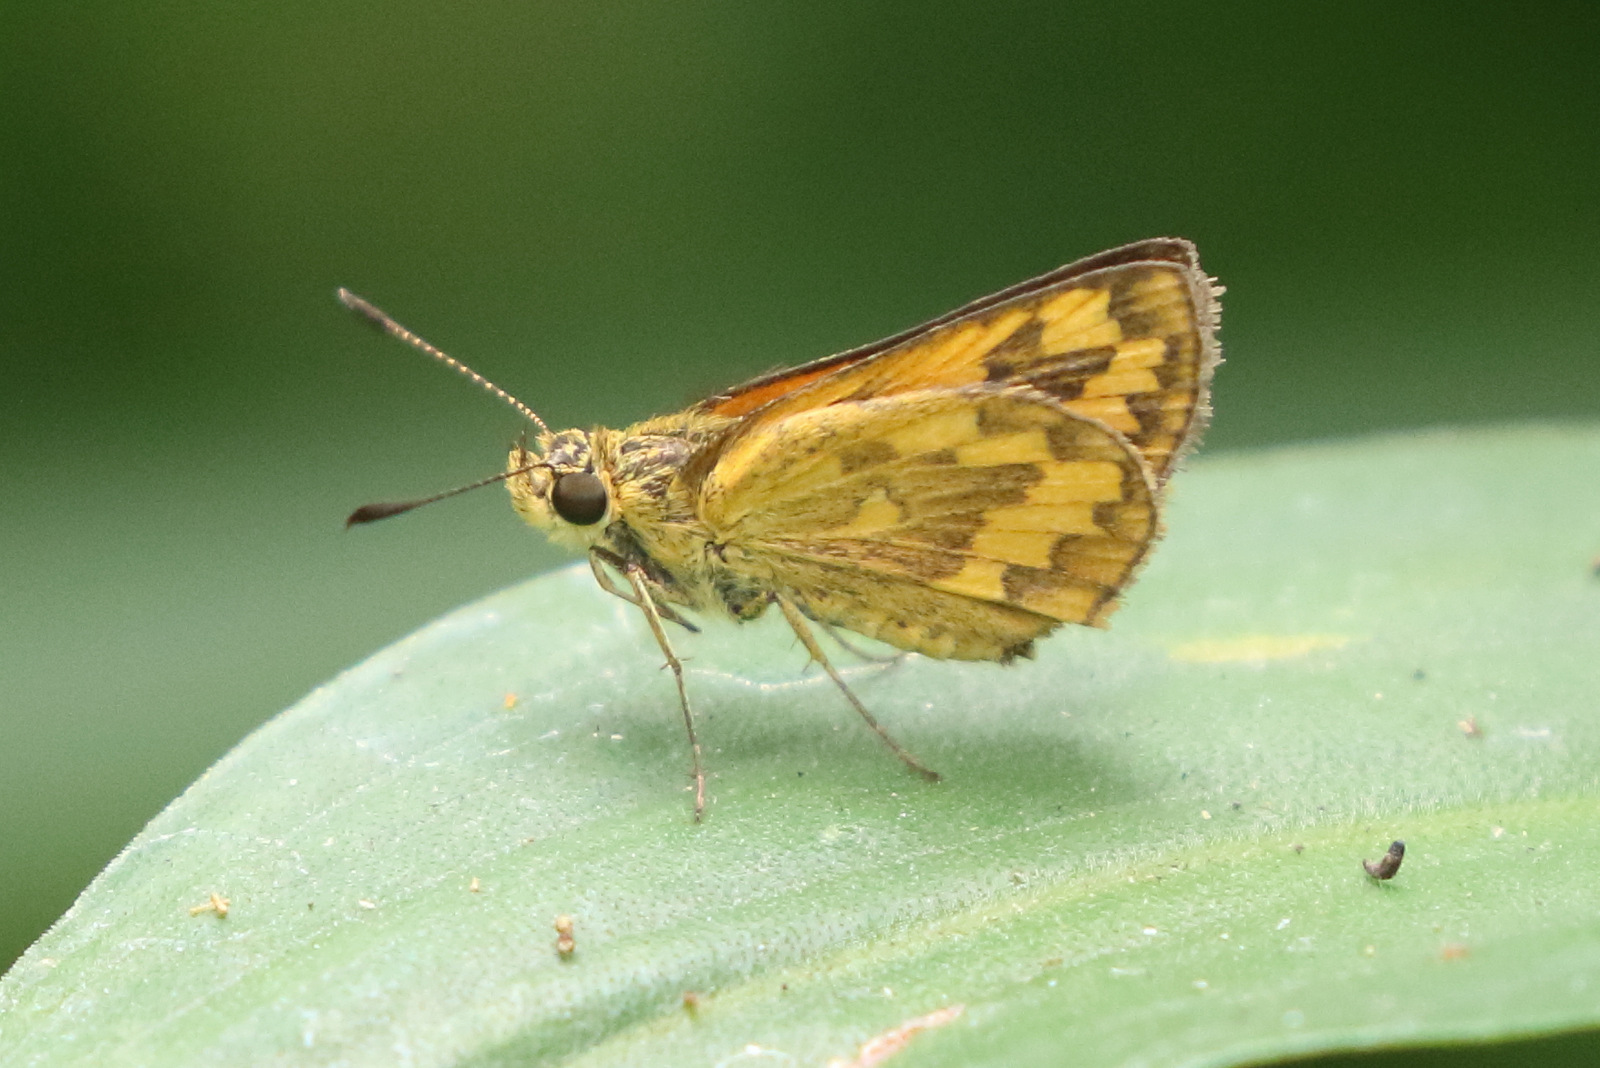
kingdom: Animalia
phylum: Arthropoda
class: Insecta
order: Lepidoptera
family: Hesperiidae
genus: Suniana
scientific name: Suniana sunias
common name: Wide-brand grass-dart
